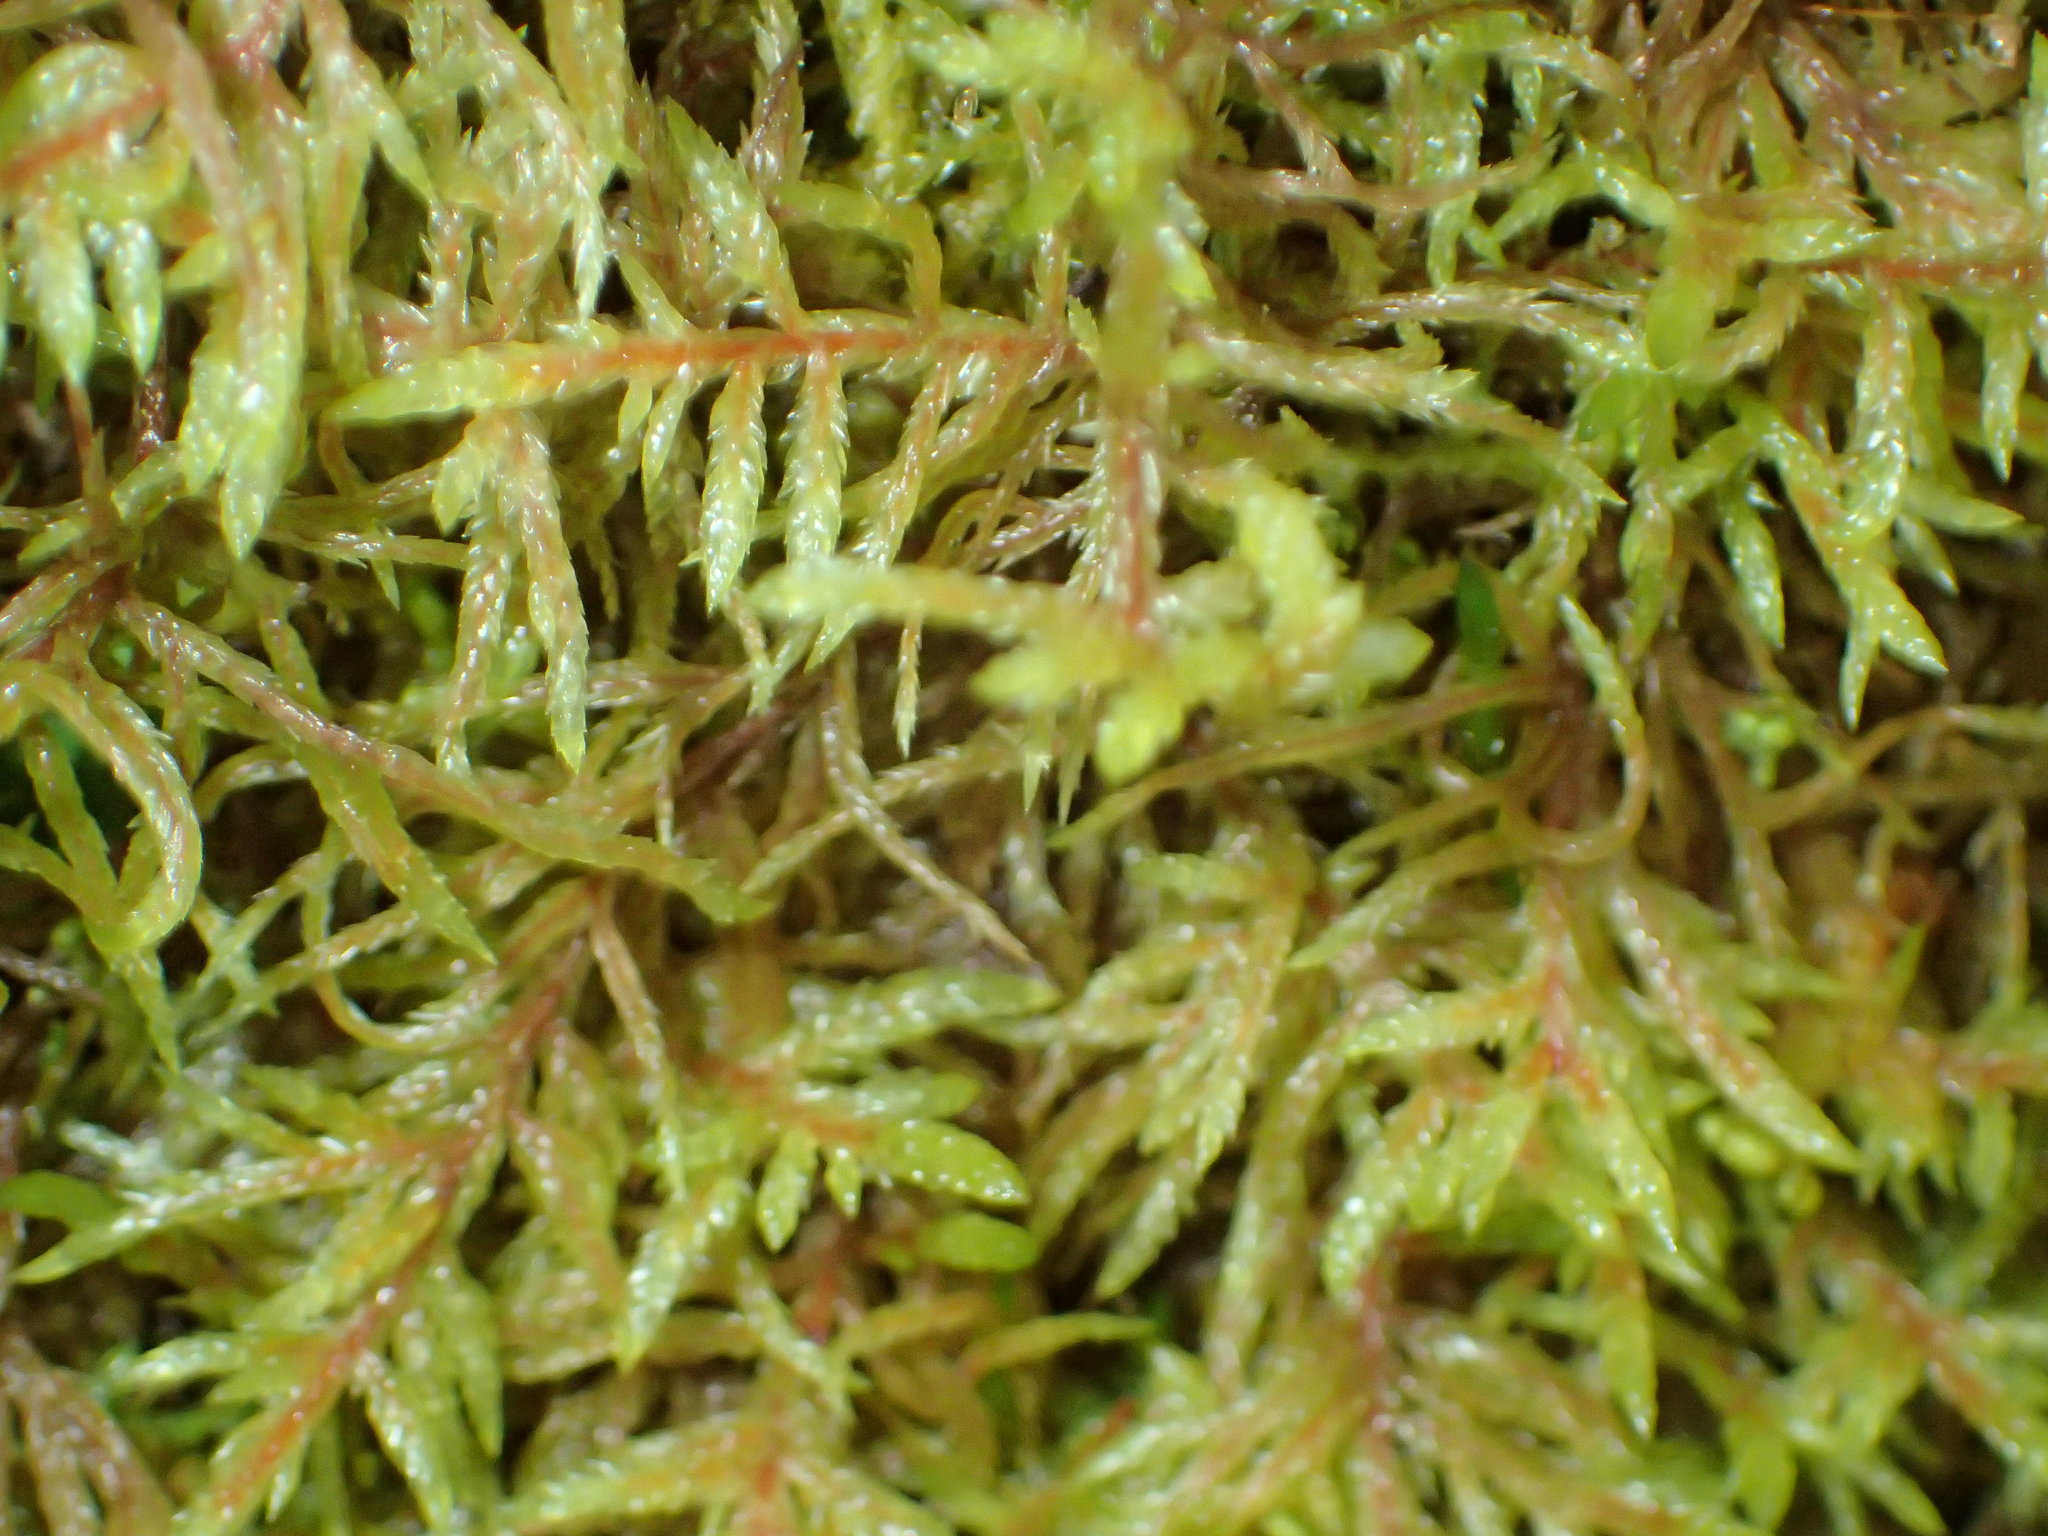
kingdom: Plantae
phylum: Bryophyta
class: Bryopsida
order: Hypnales
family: Hylocomiaceae
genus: Pleurozium
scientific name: Pleurozium schreberi
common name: Red-stemmed feather moss
